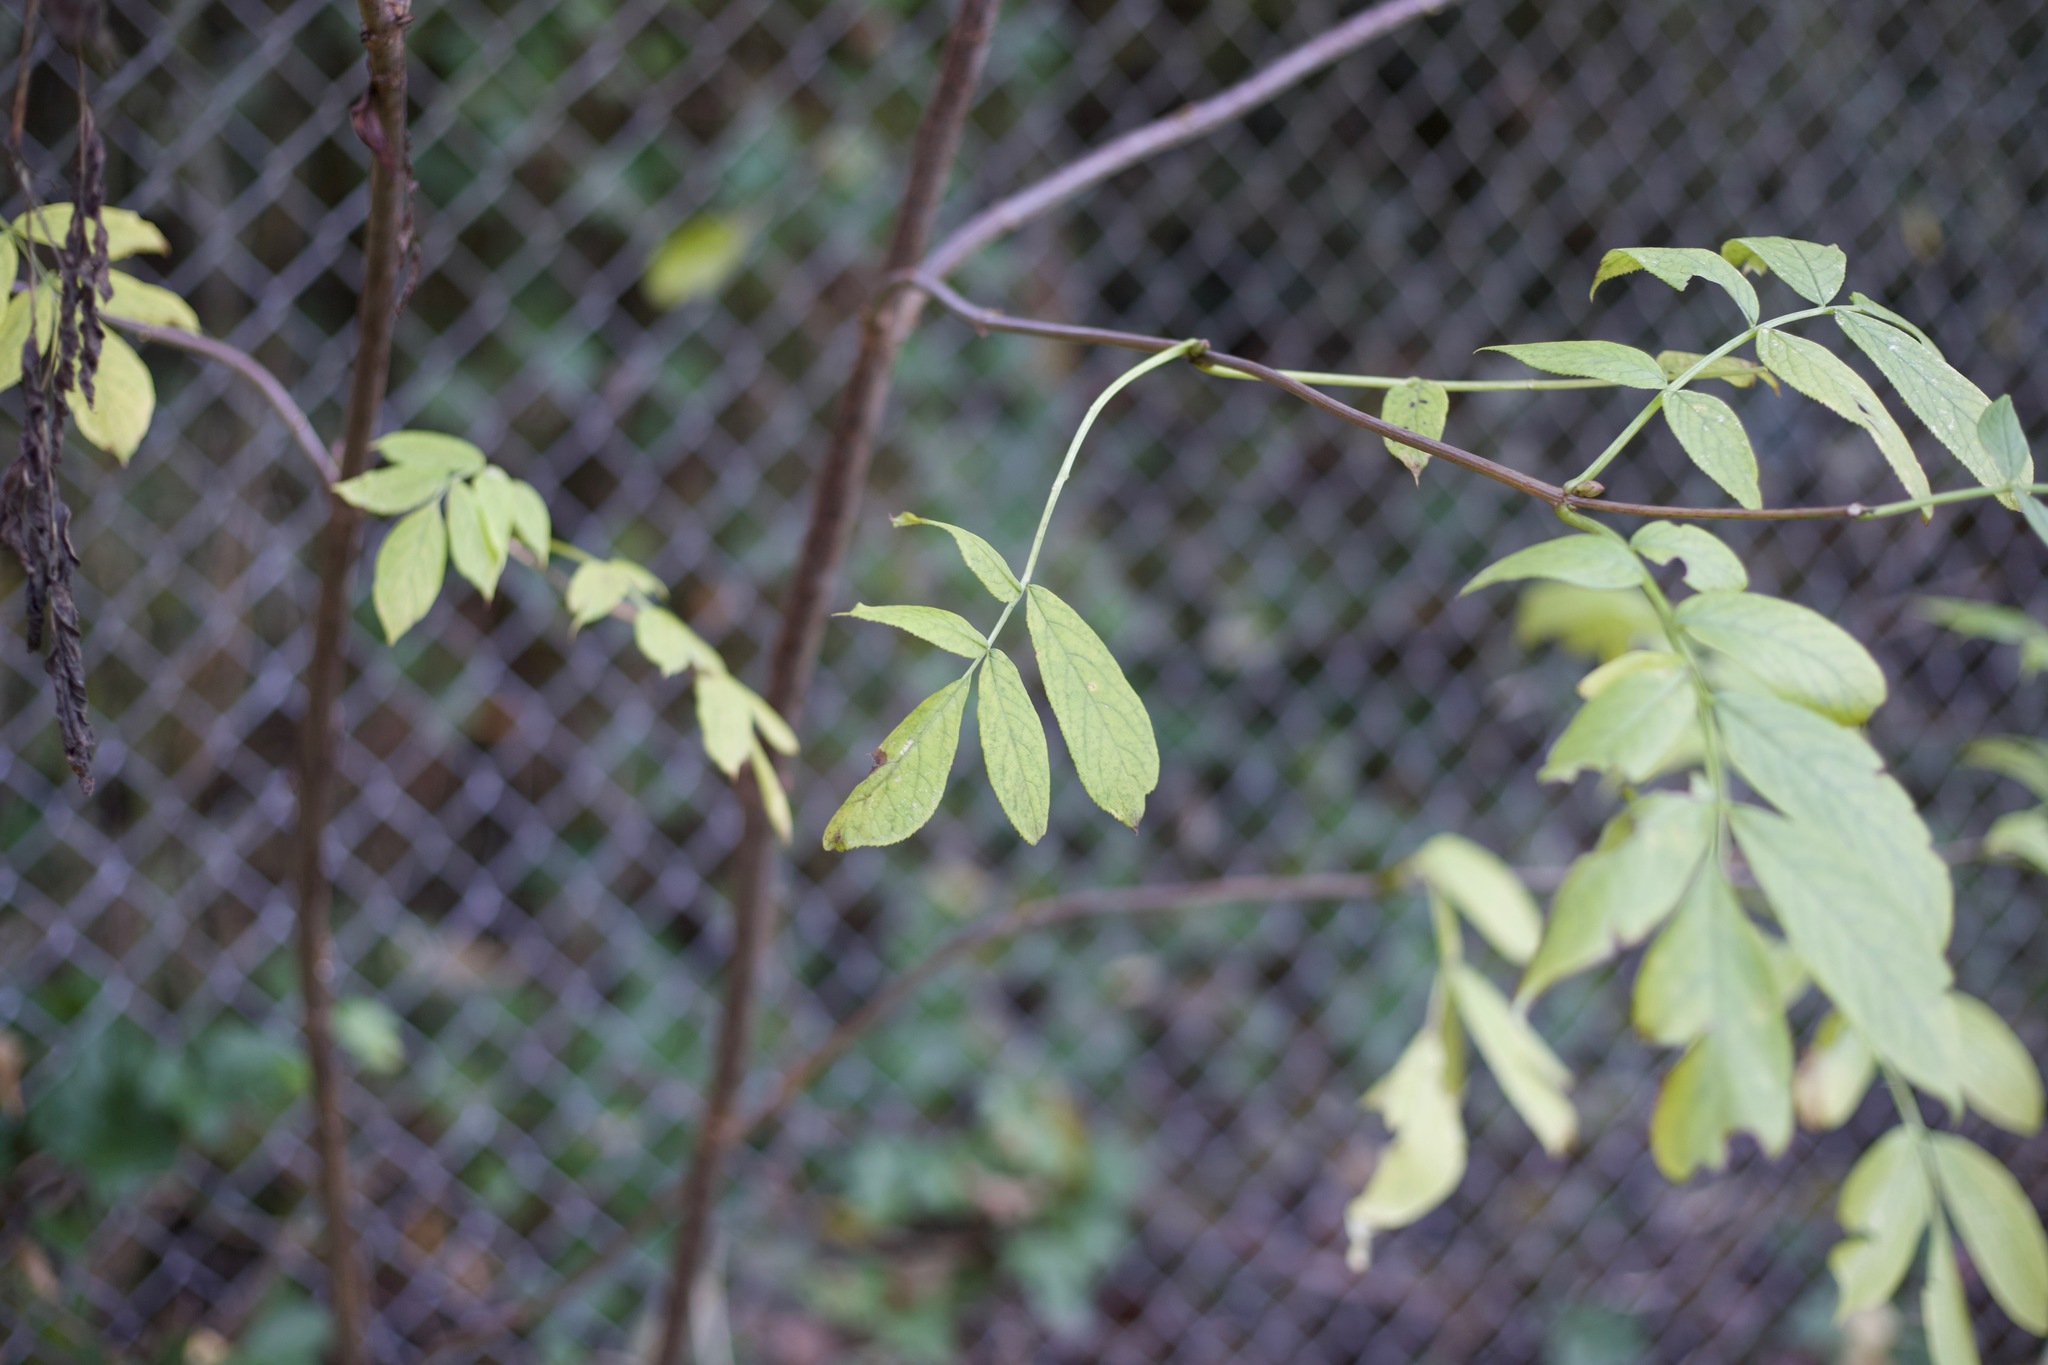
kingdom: Plantae
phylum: Tracheophyta
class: Magnoliopsida
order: Dipsacales
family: Viburnaceae
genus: Sambucus
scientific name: Sambucus racemosa
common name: Red-berried elder
